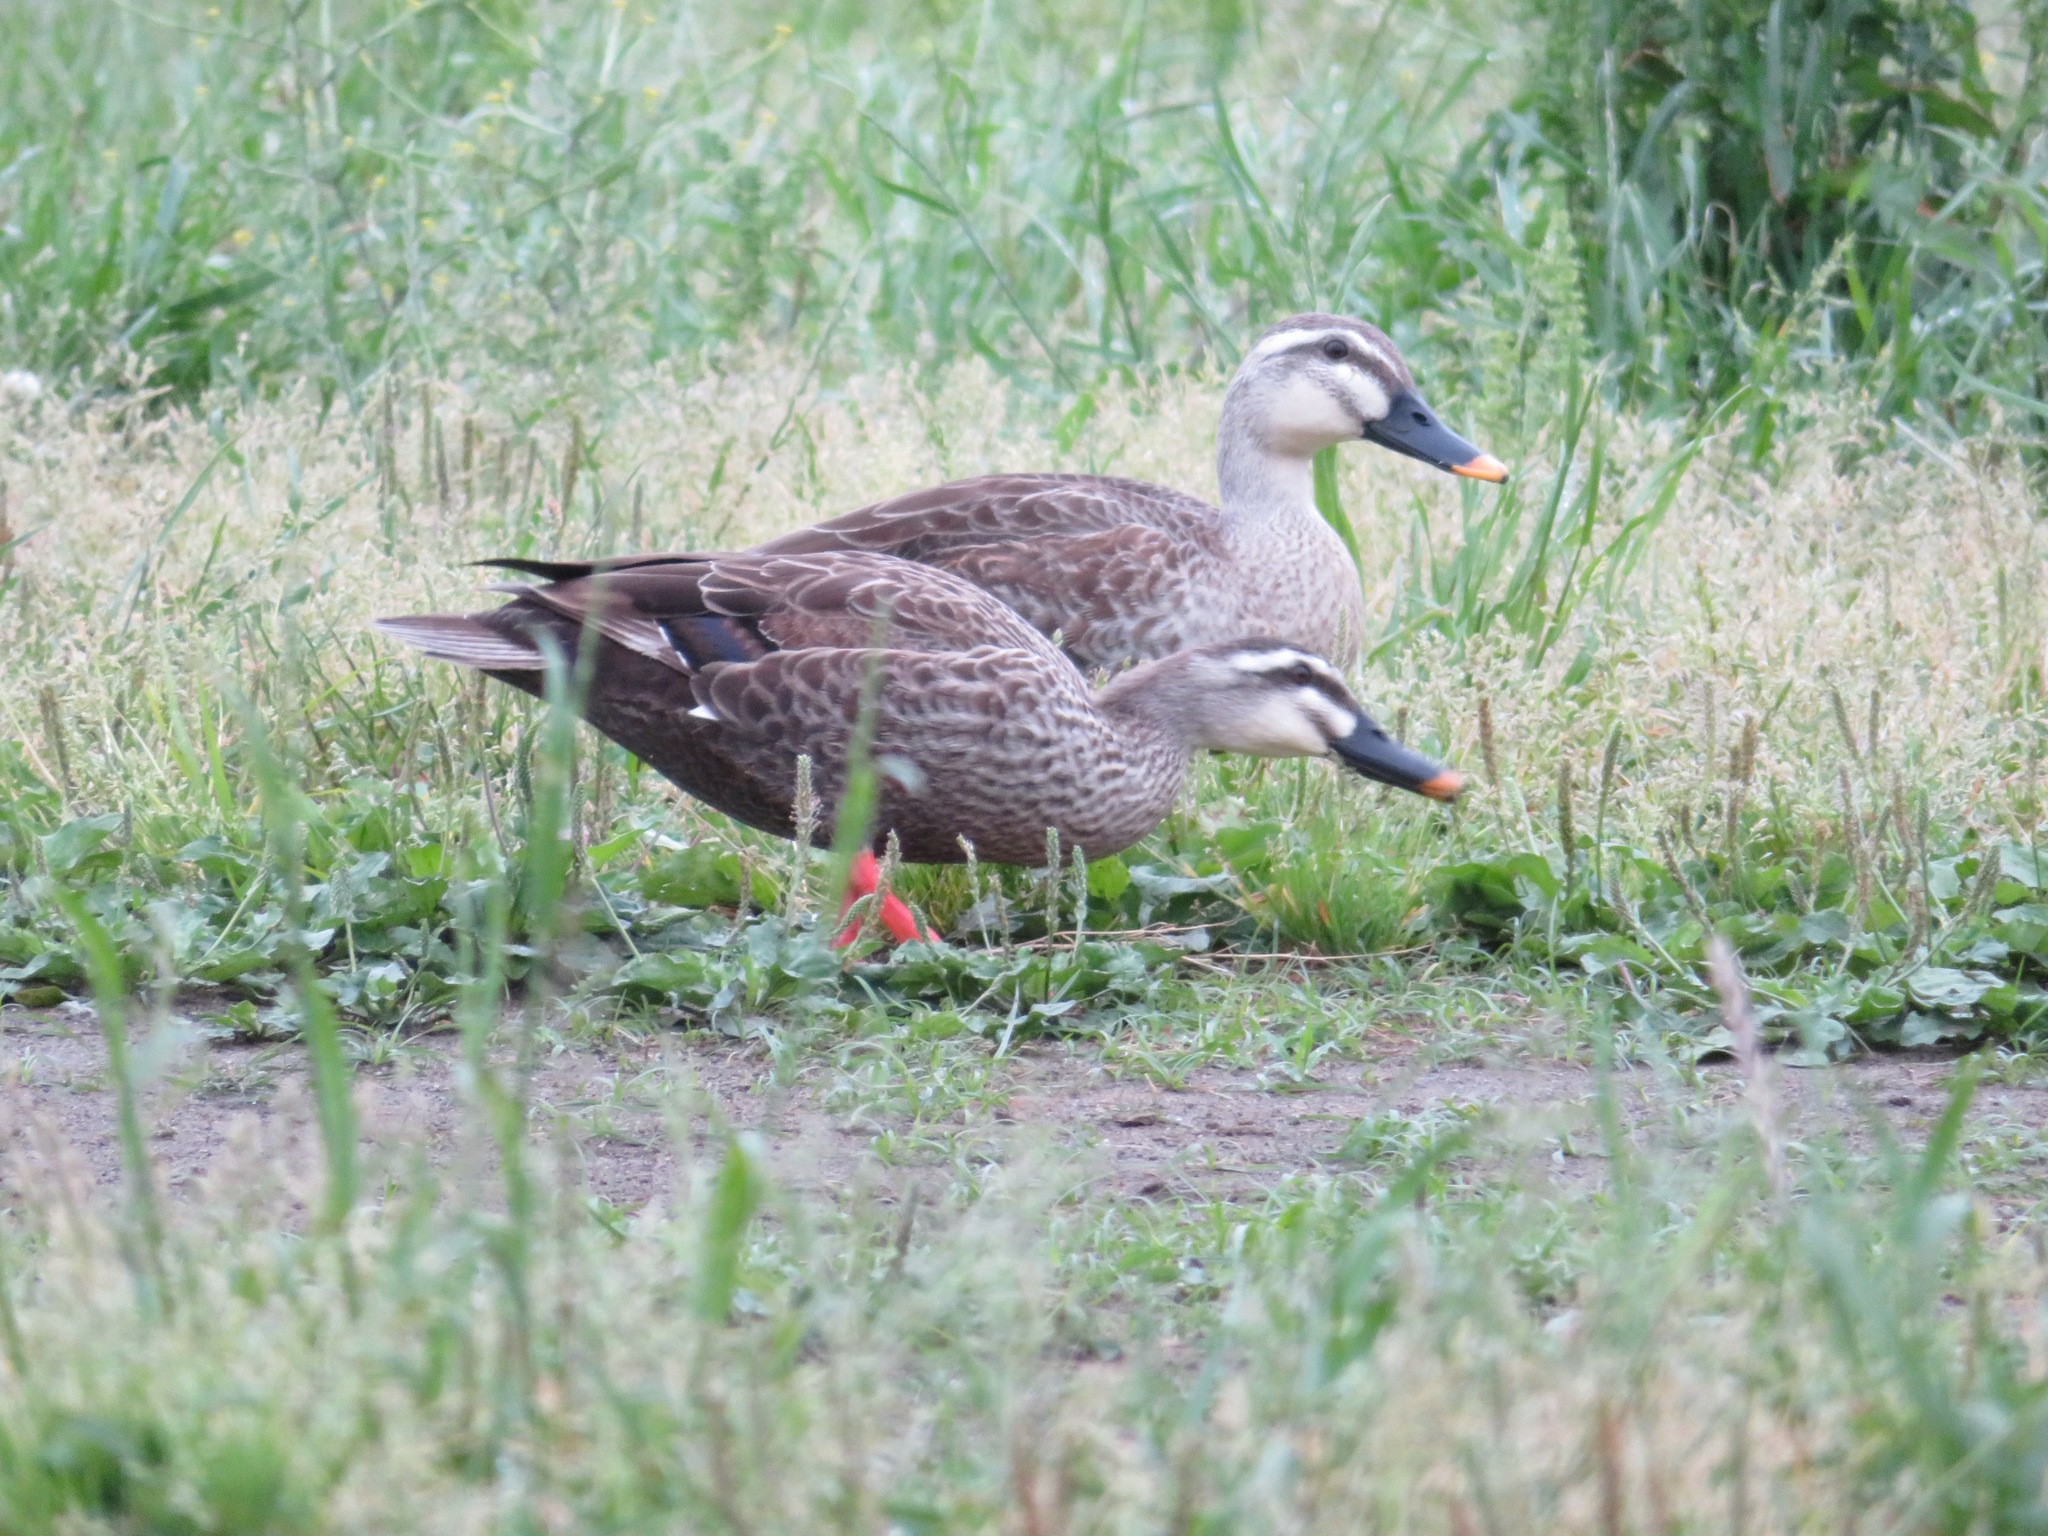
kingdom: Animalia
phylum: Chordata
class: Aves
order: Anseriformes
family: Anatidae
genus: Anas
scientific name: Anas zonorhyncha
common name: Eastern spot-billed duck
